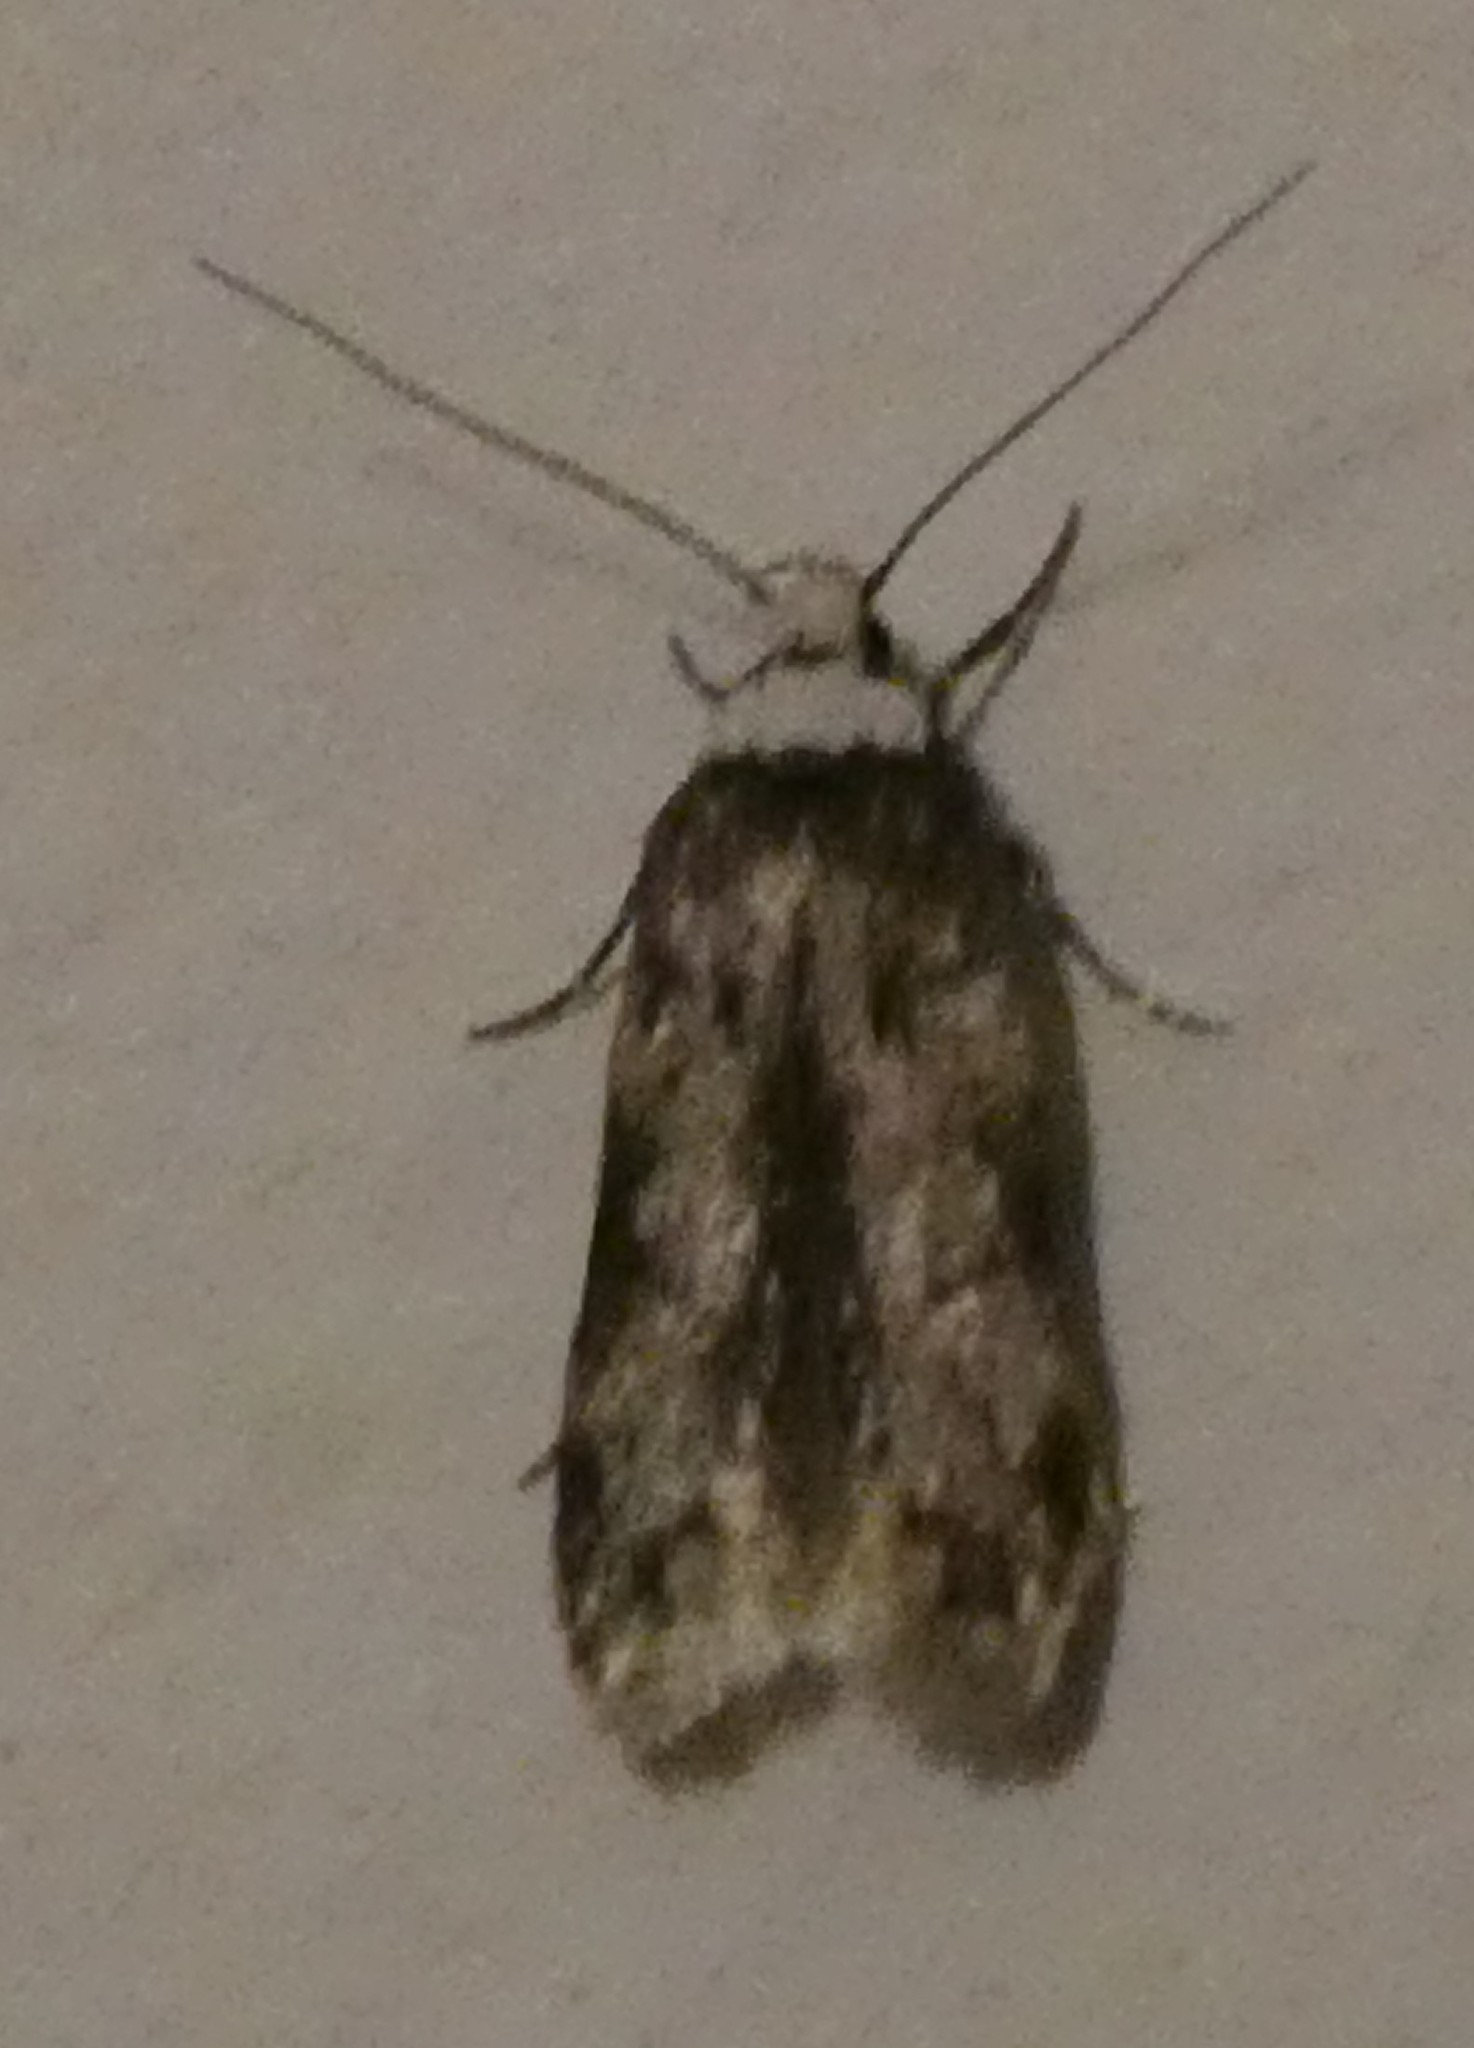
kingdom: Animalia
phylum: Arthropoda
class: Insecta
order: Lepidoptera
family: Oecophoridae
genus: Endrosis
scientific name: Endrosis sarcitrella
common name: White-shouldered house moth
